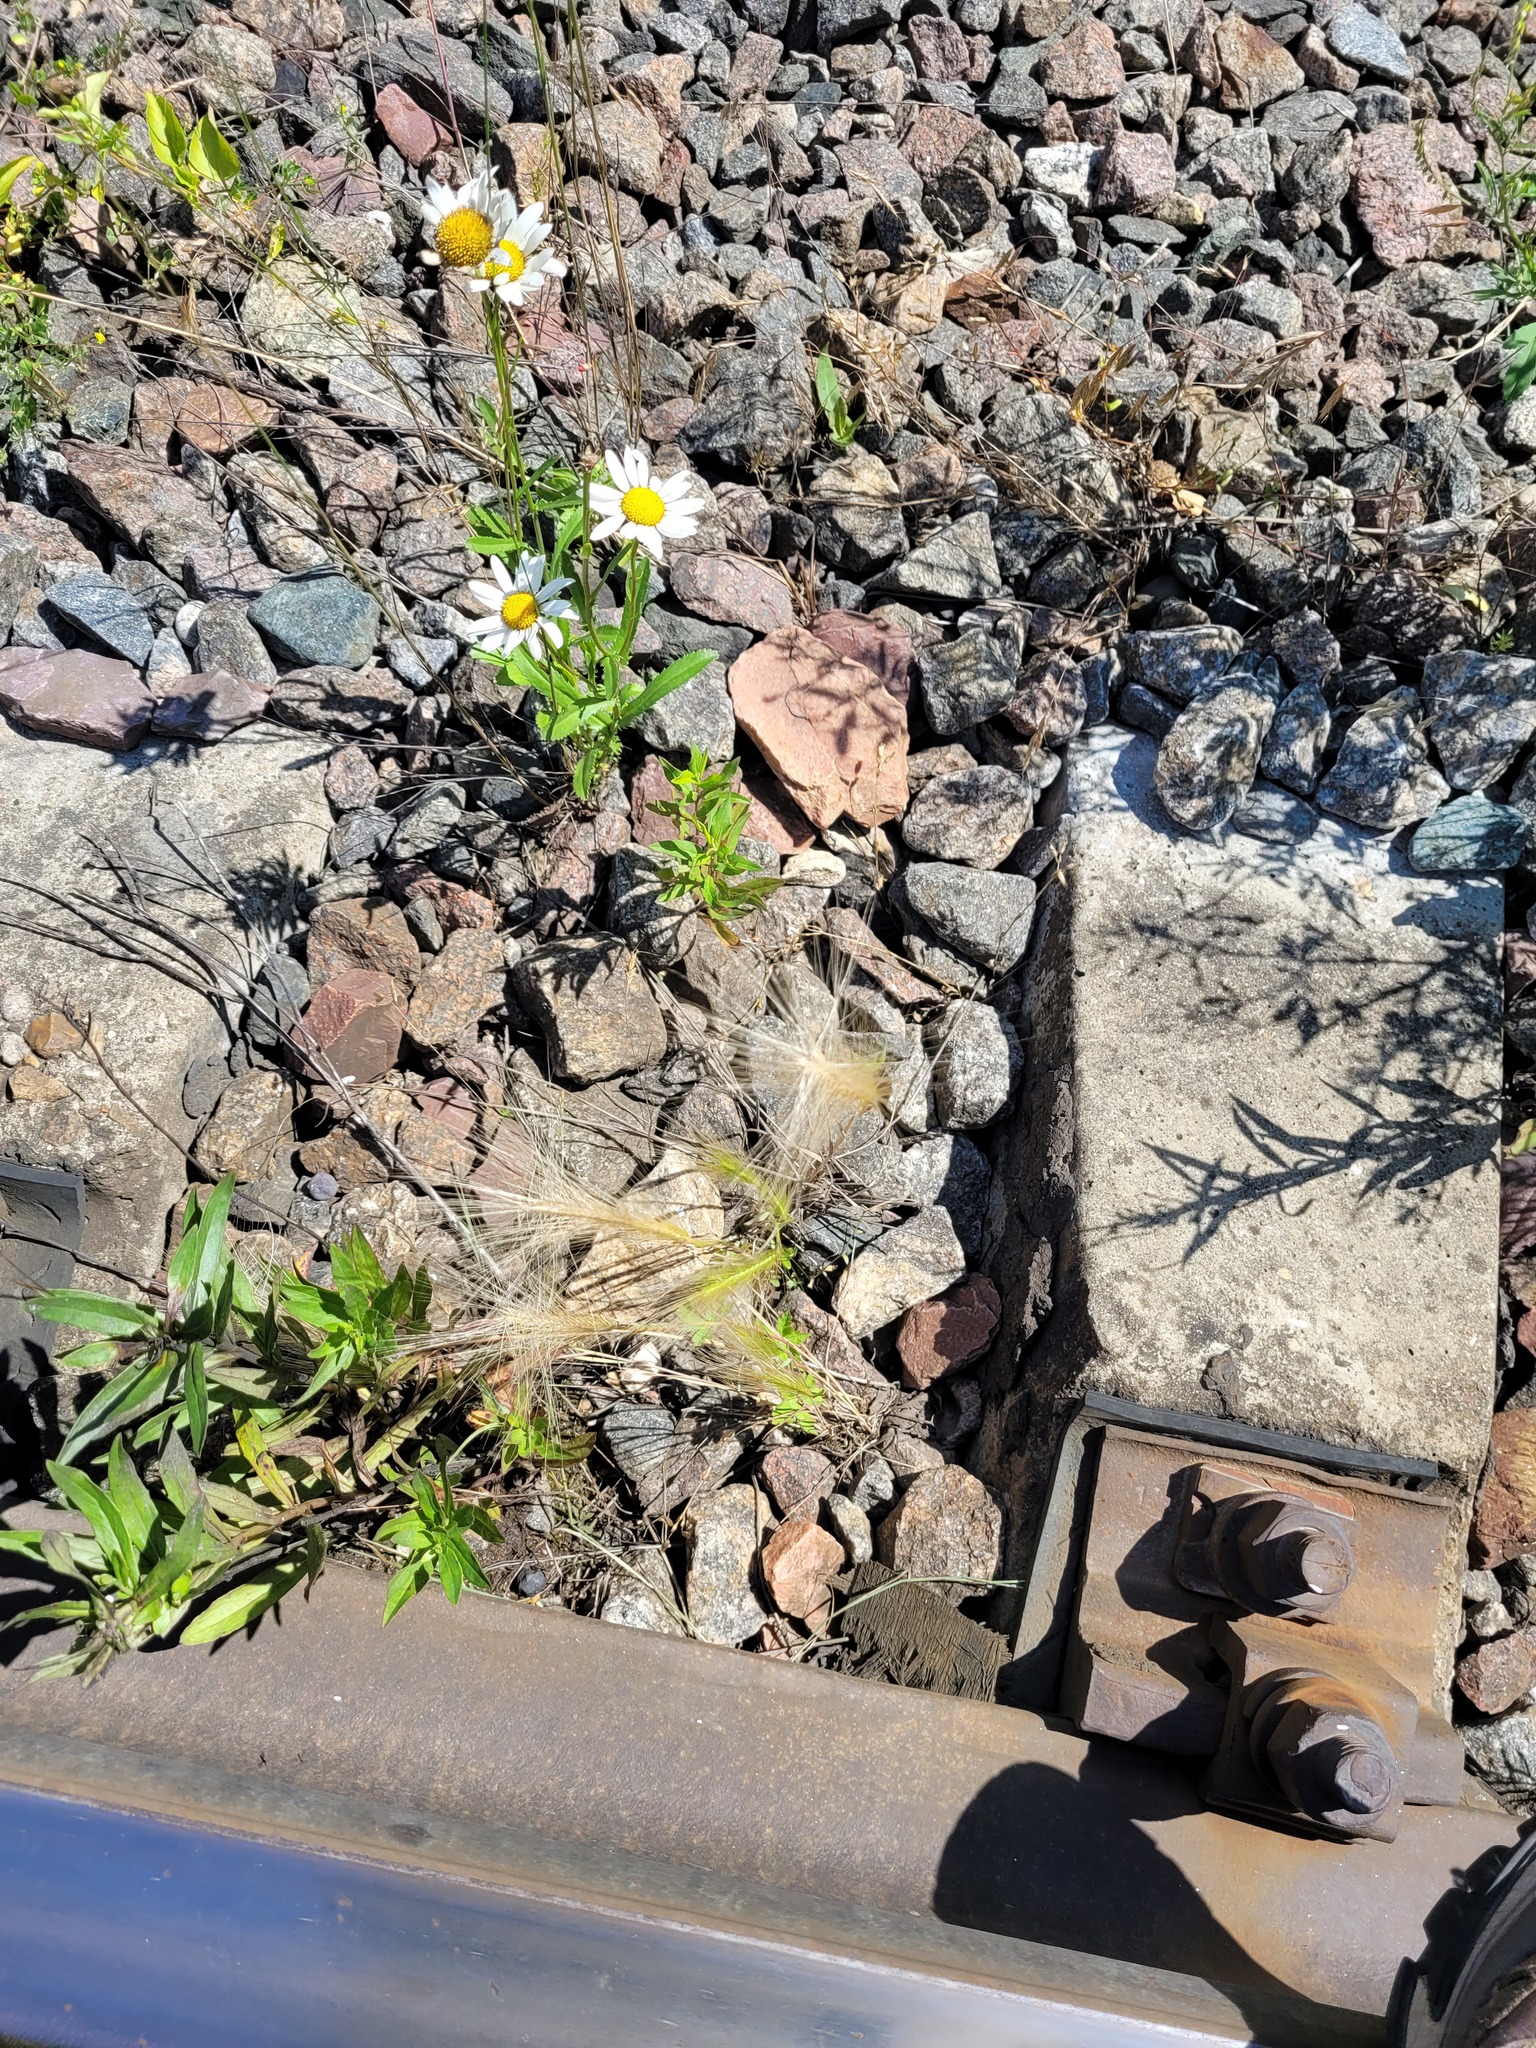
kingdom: Plantae
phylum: Tracheophyta
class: Liliopsida
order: Poales
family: Poaceae
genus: Hordeum
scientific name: Hordeum jubatum
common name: Foxtail barley
